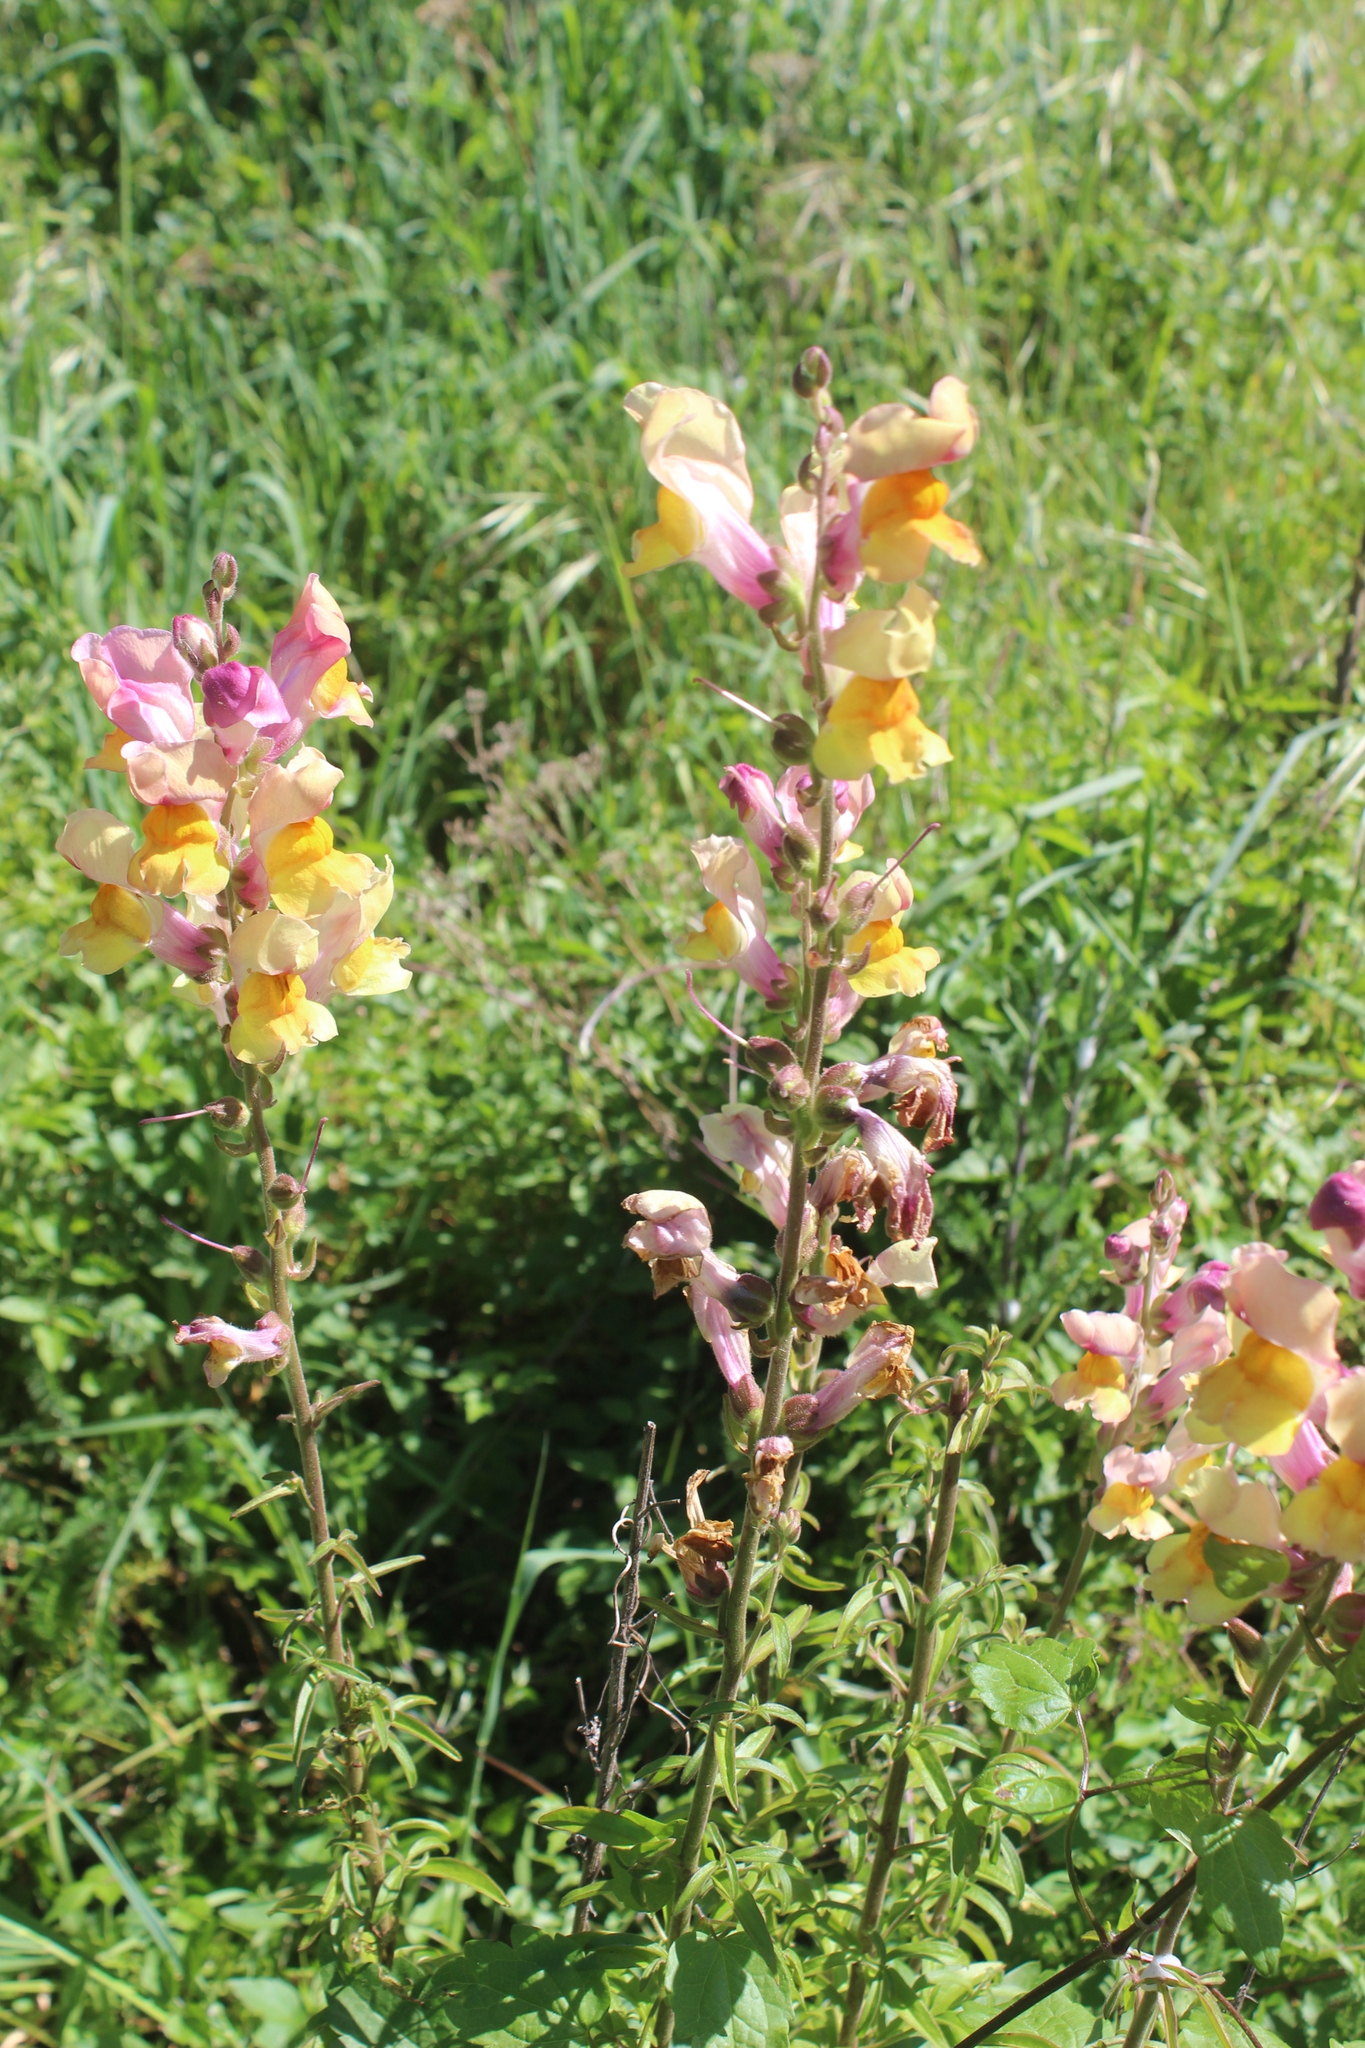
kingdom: Plantae
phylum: Tracheophyta
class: Magnoliopsida
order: Lamiales
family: Plantaginaceae
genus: Antirrhinum
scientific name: Antirrhinum majus
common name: Snapdragon
